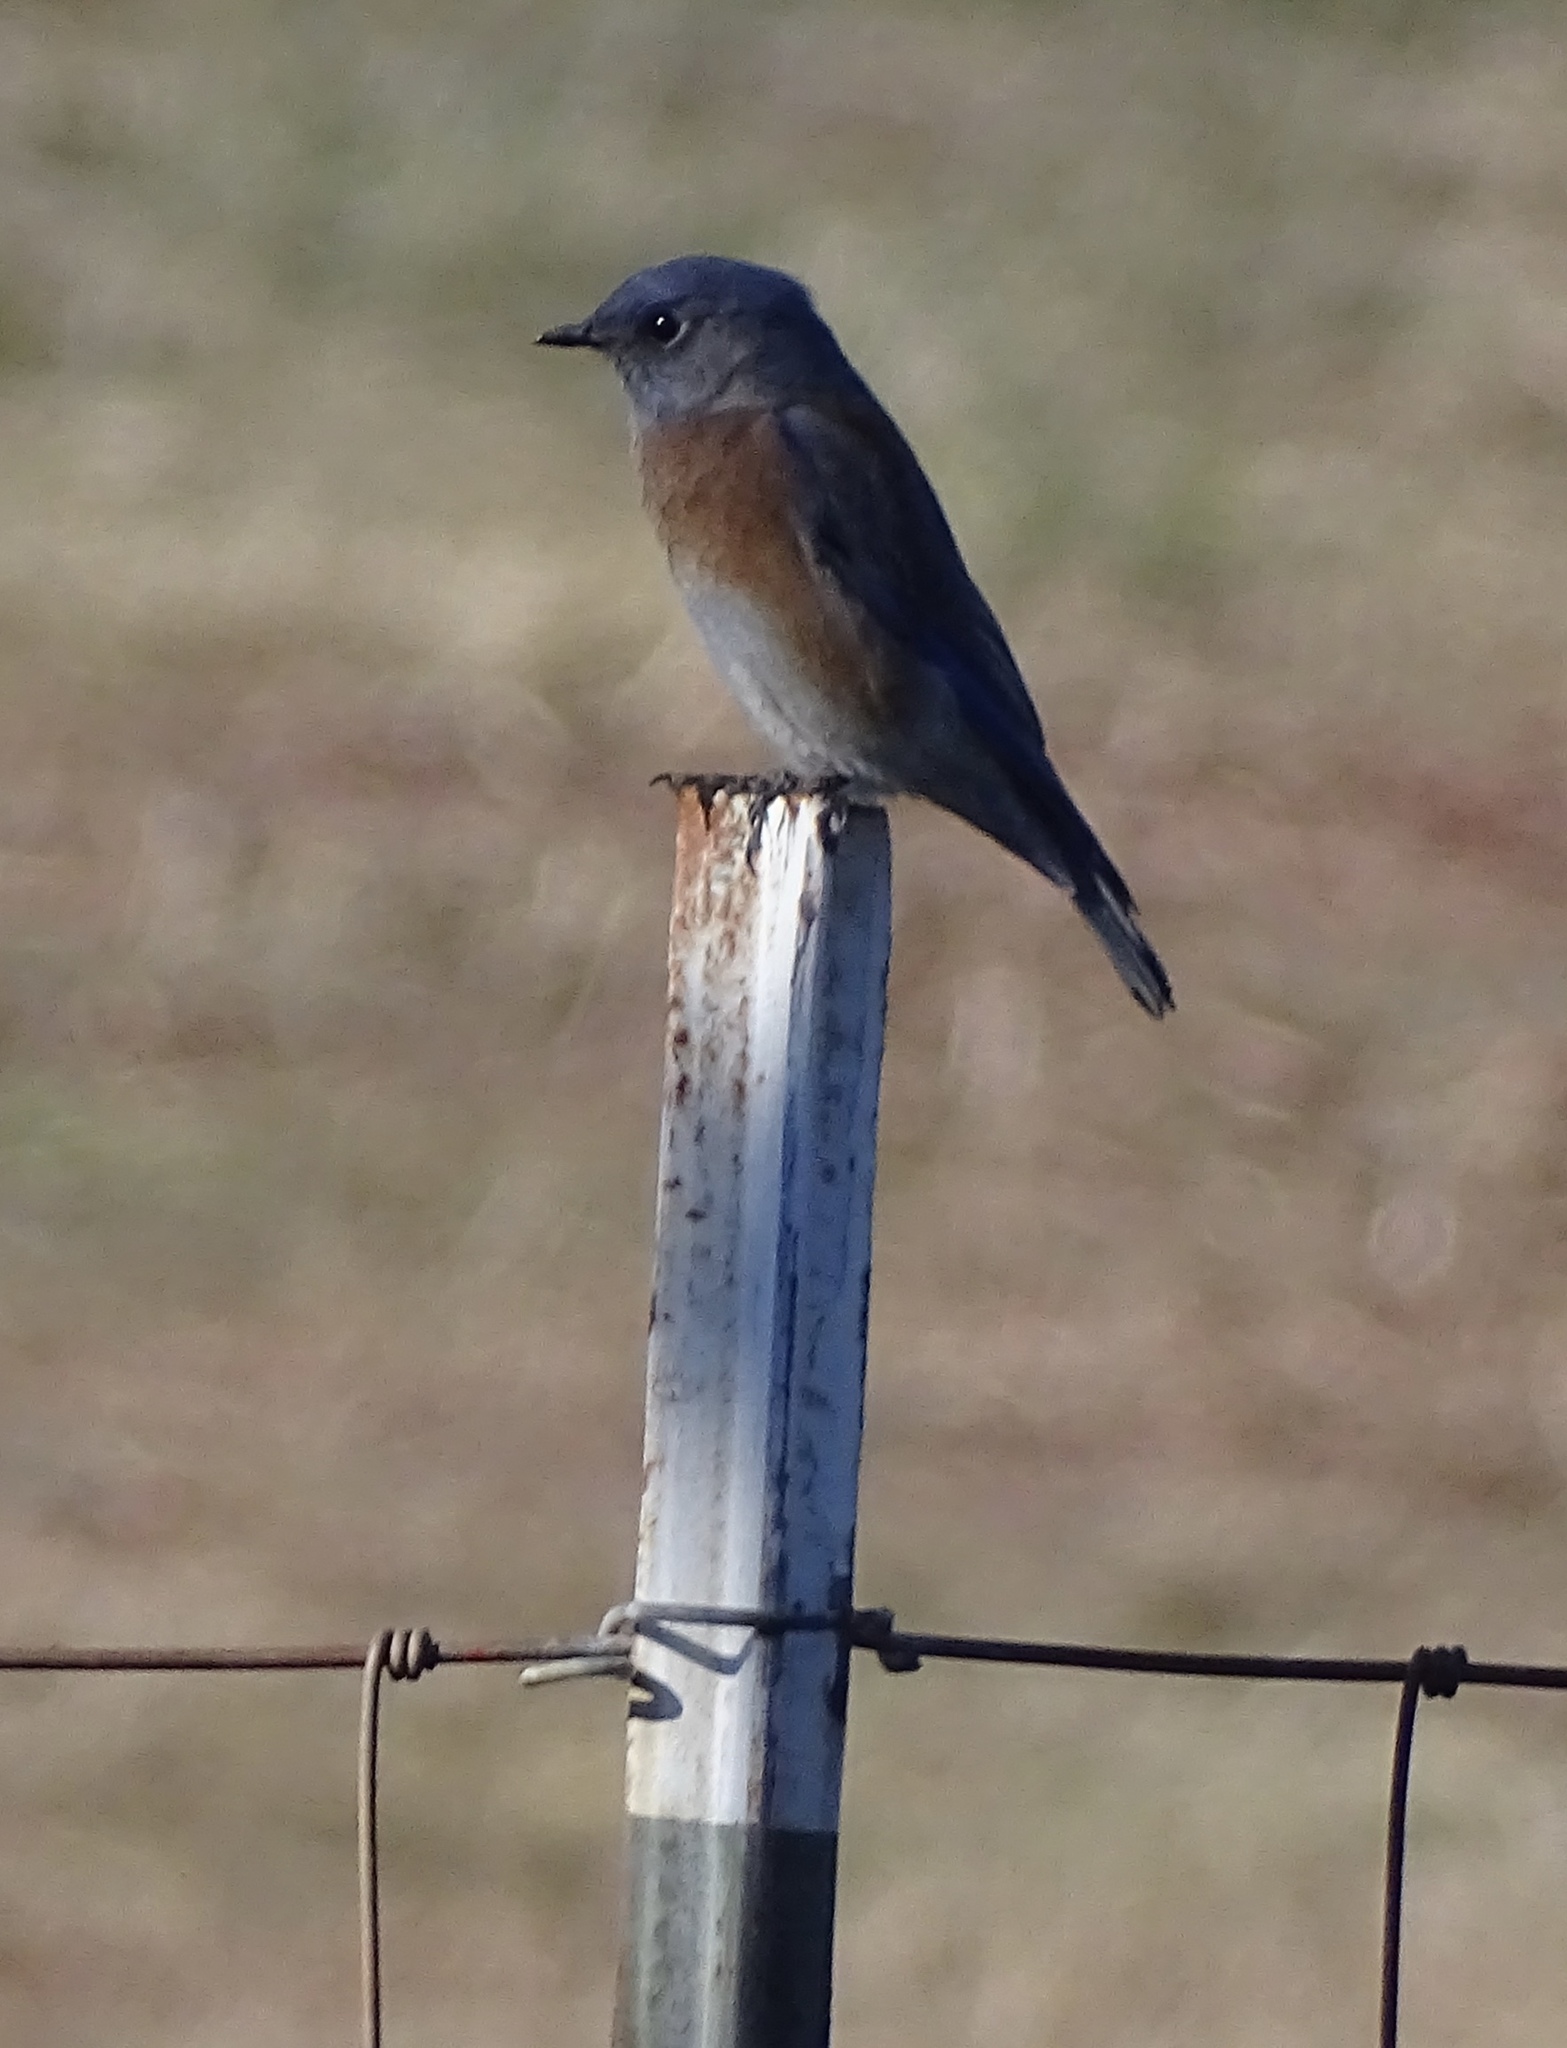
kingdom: Animalia
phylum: Chordata
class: Aves
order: Passeriformes
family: Turdidae
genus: Sialia
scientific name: Sialia mexicana
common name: Western bluebird
